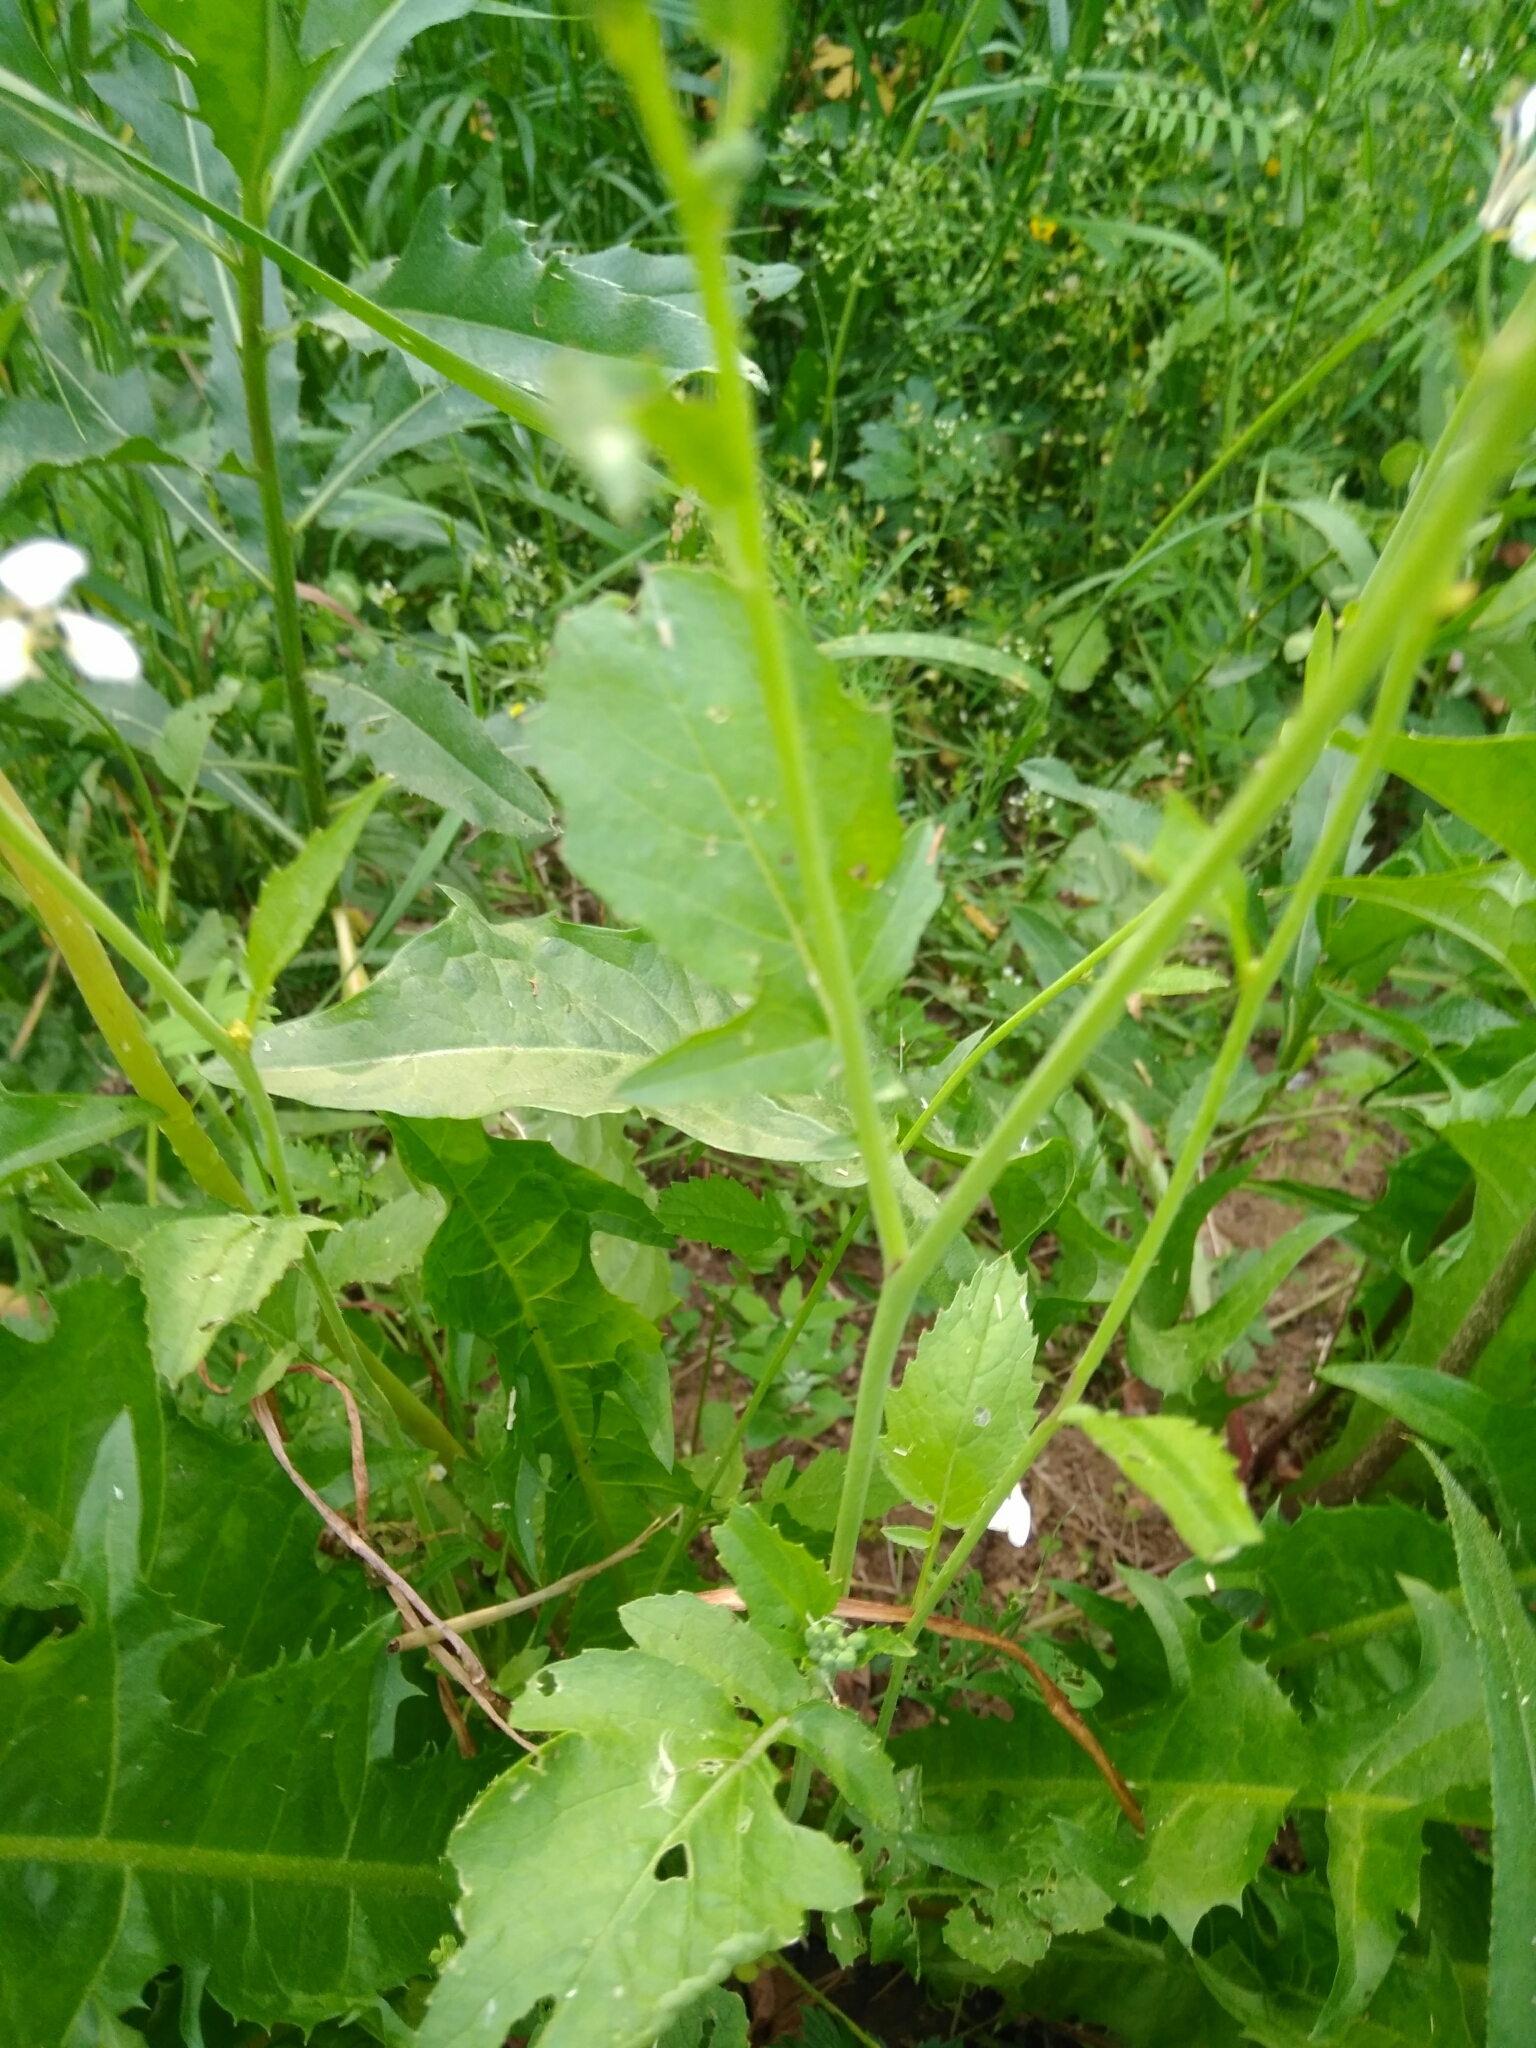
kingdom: Plantae
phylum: Tracheophyta
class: Magnoliopsida
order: Brassicales
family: Brassicaceae
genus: Raphanus
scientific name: Raphanus raphanistrum
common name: Wild radish
